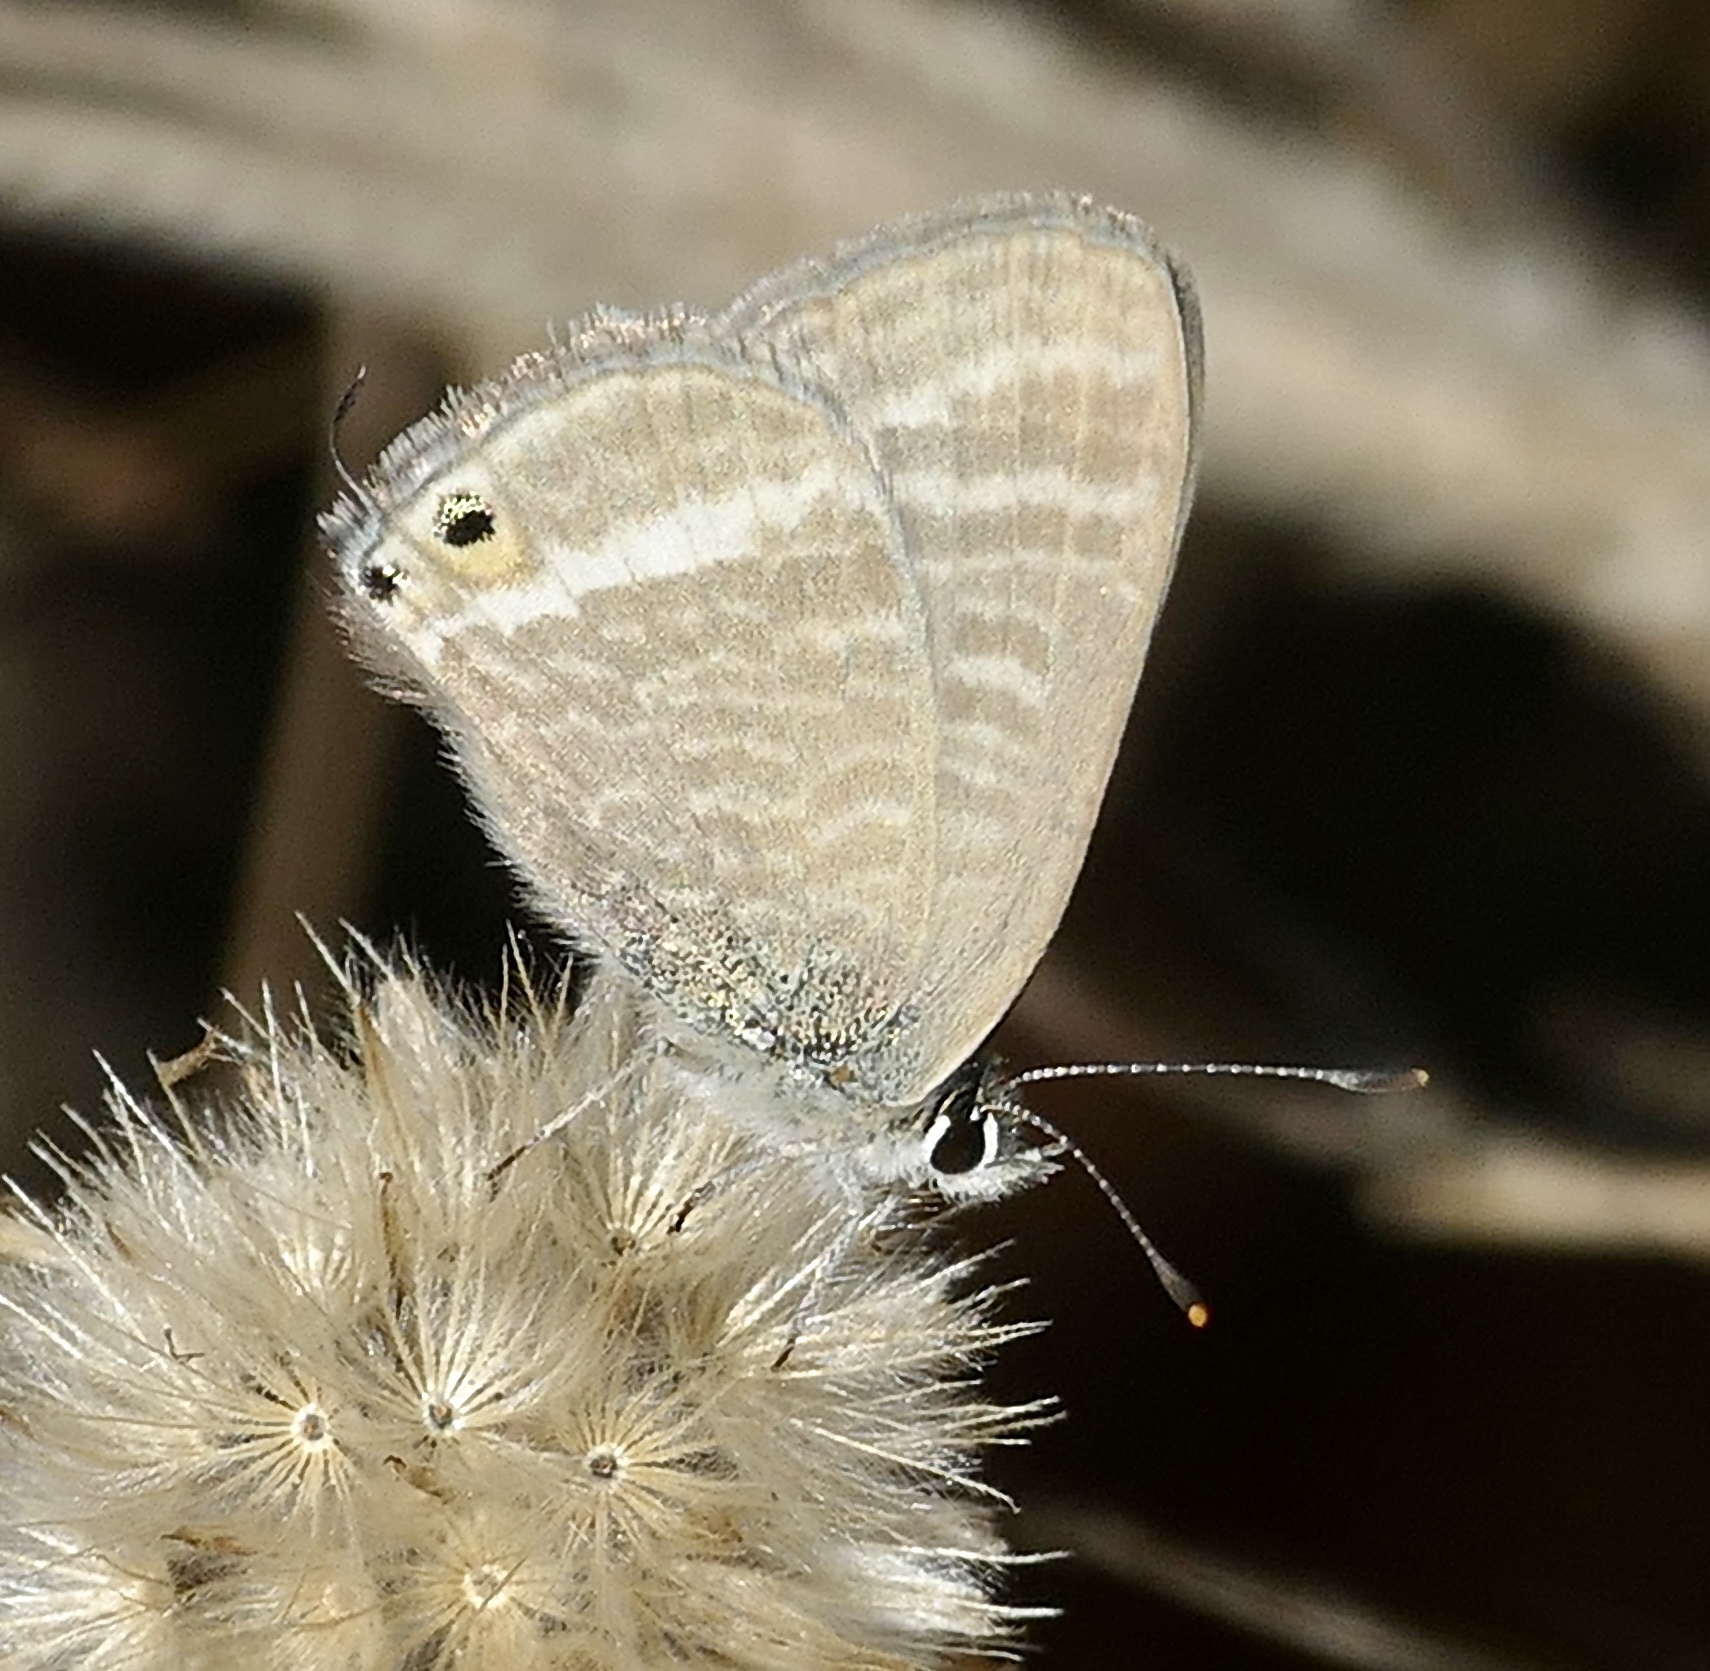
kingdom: Animalia
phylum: Arthropoda
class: Insecta
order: Lepidoptera
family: Lycaenidae
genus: Lampides
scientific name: Lampides boeticus
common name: Long-tailed blue
